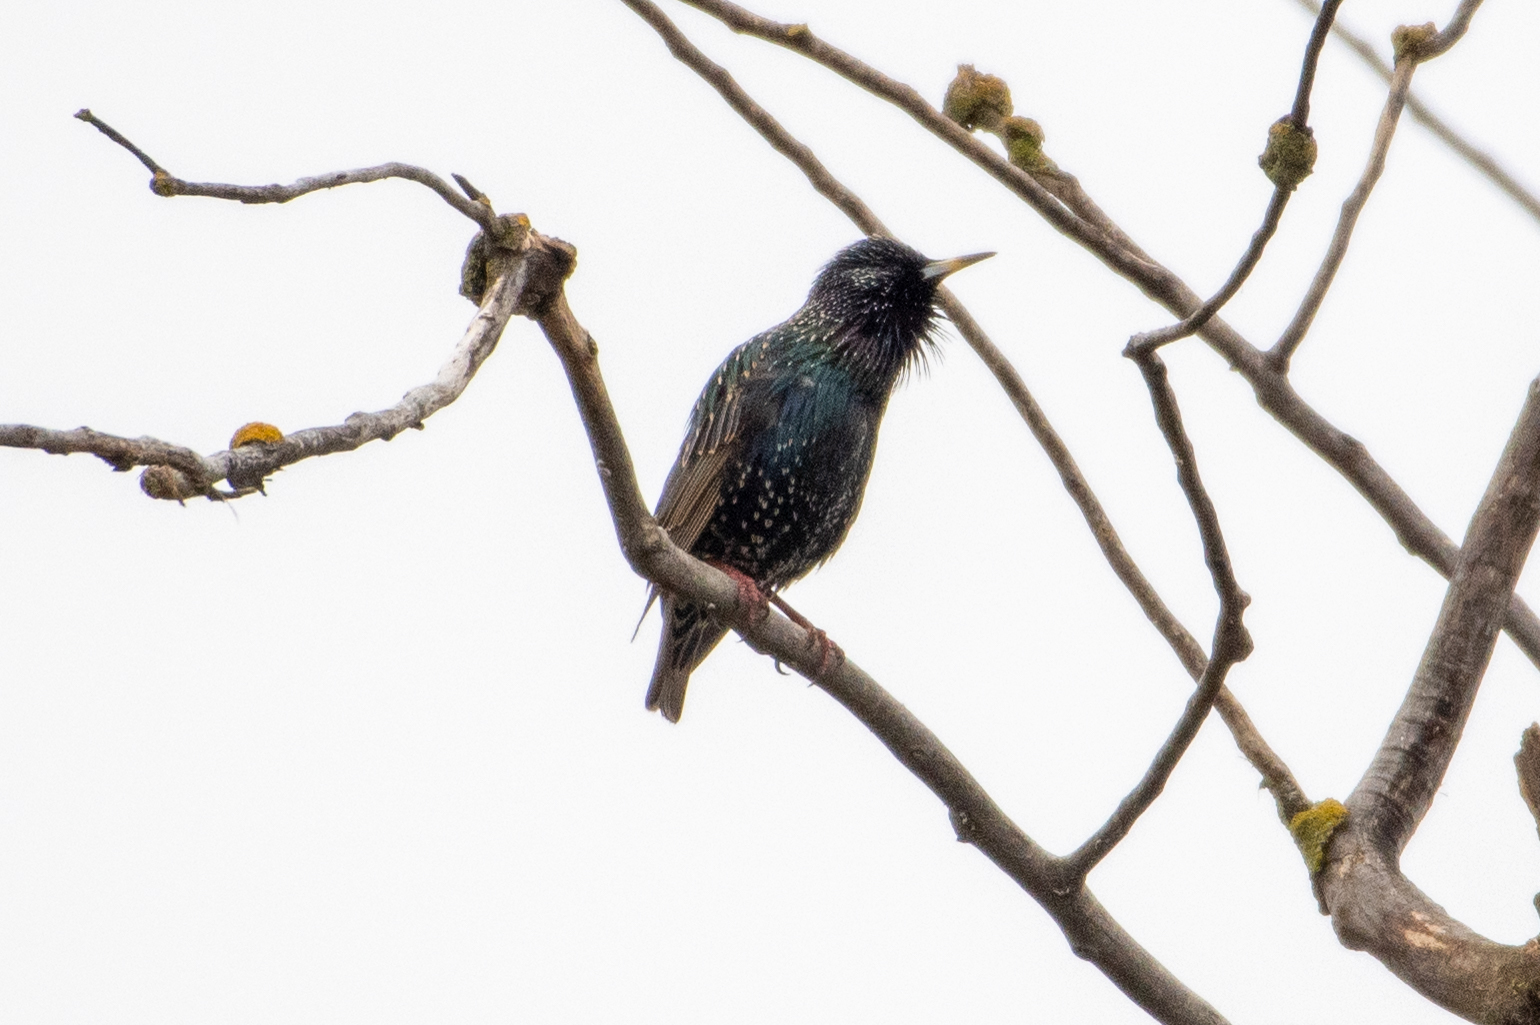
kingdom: Animalia
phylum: Chordata
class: Aves
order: Passeriformes
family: Sturnidae
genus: Sturnus
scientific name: Sturnus vulgaris
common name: Common starling
